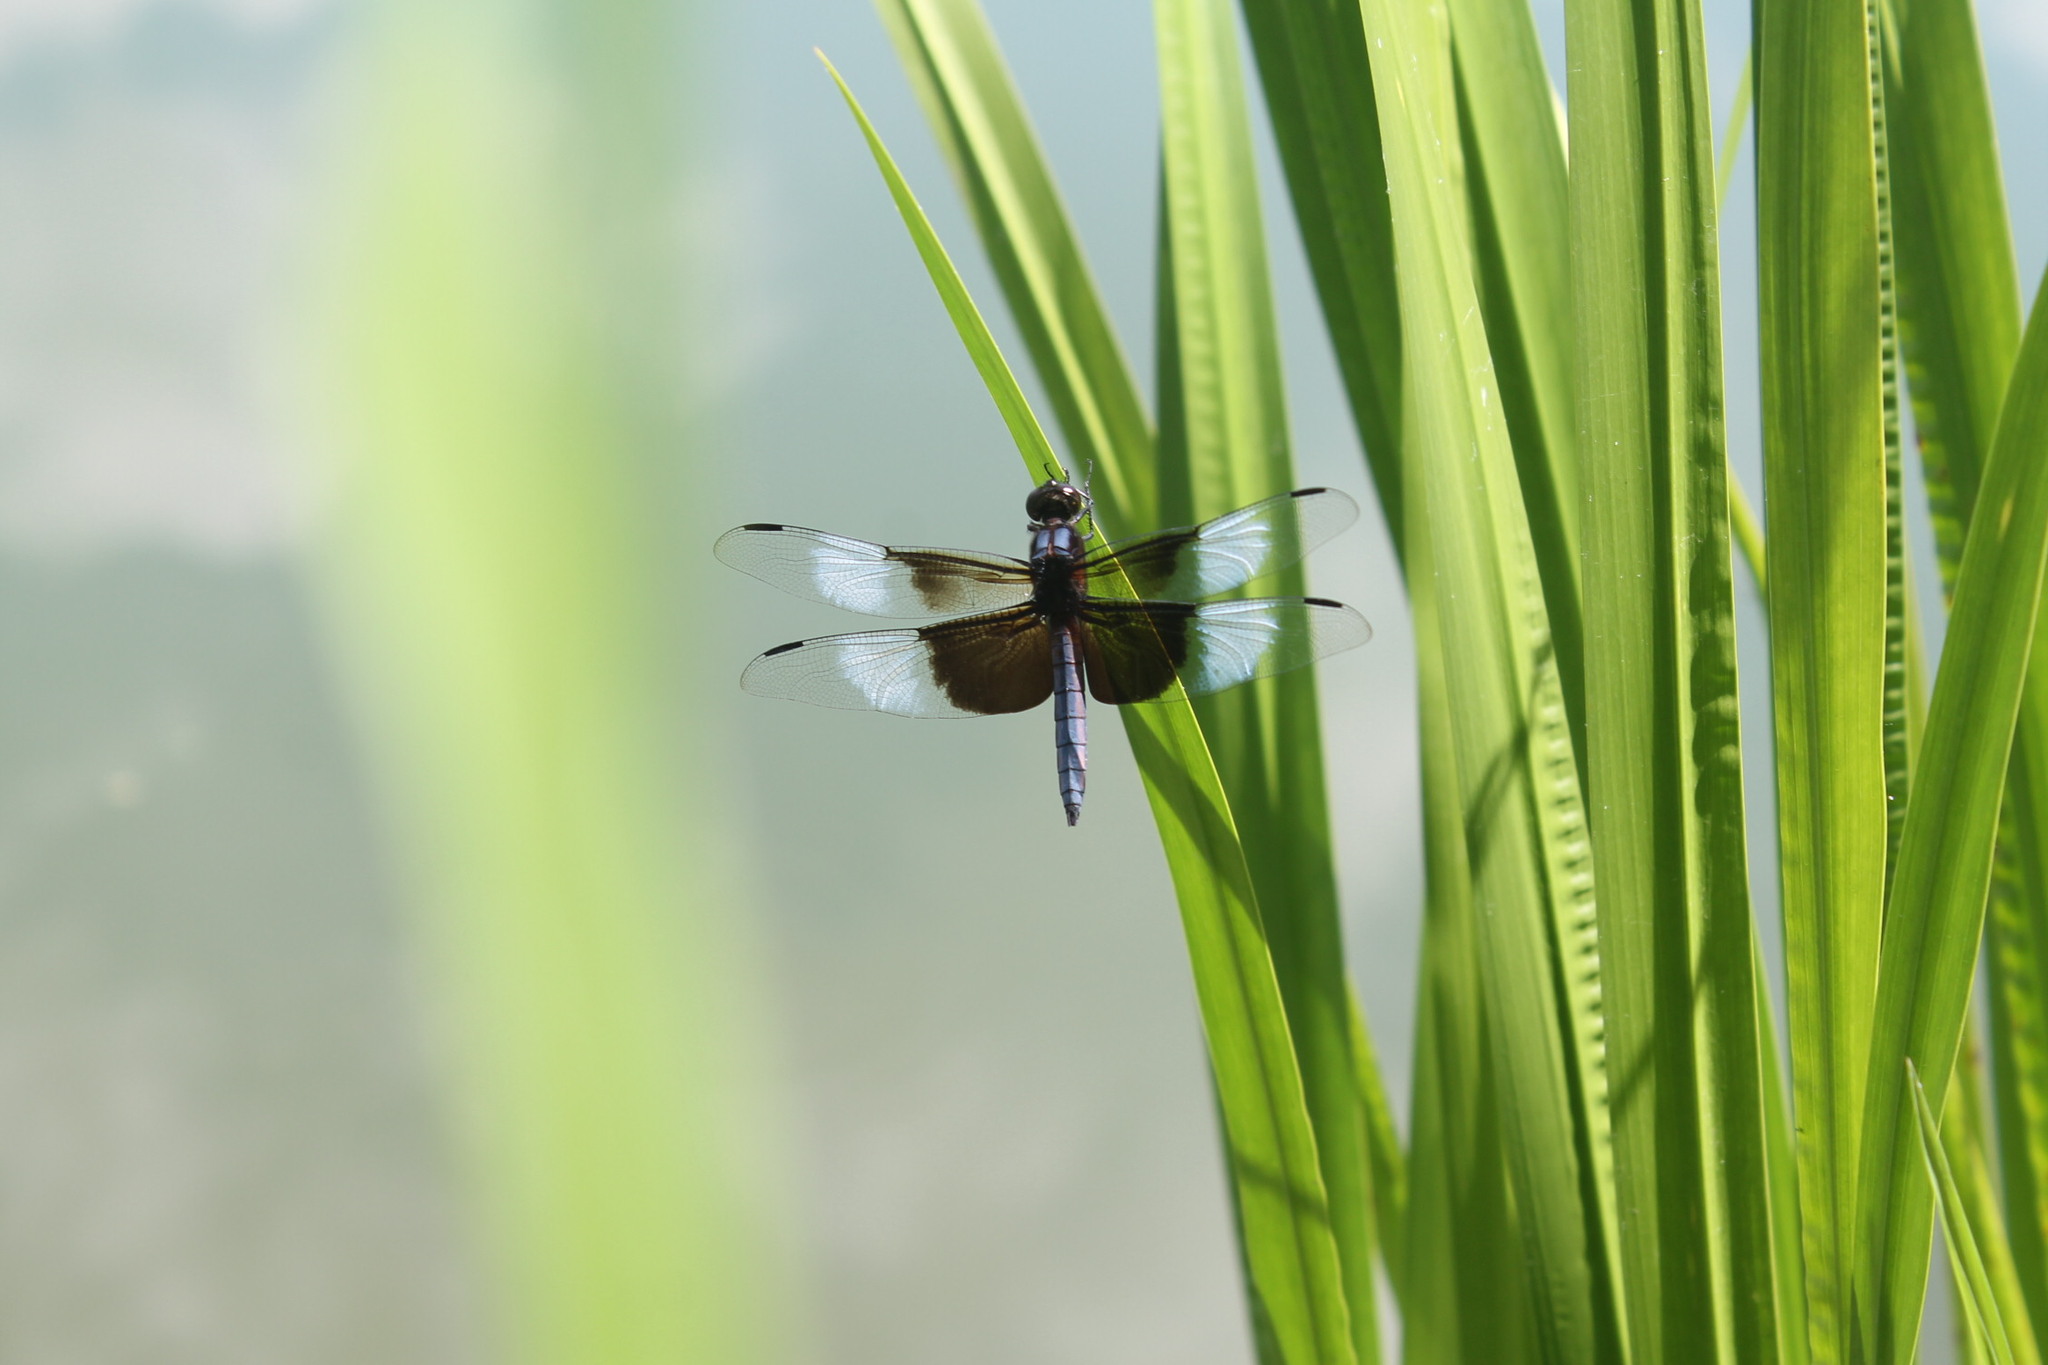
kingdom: Animalia
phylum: Arthropoda
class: Insecta
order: Odonata
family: Libellulidae
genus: Libellula
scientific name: Libellula luctuosa
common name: Widow skimmer
